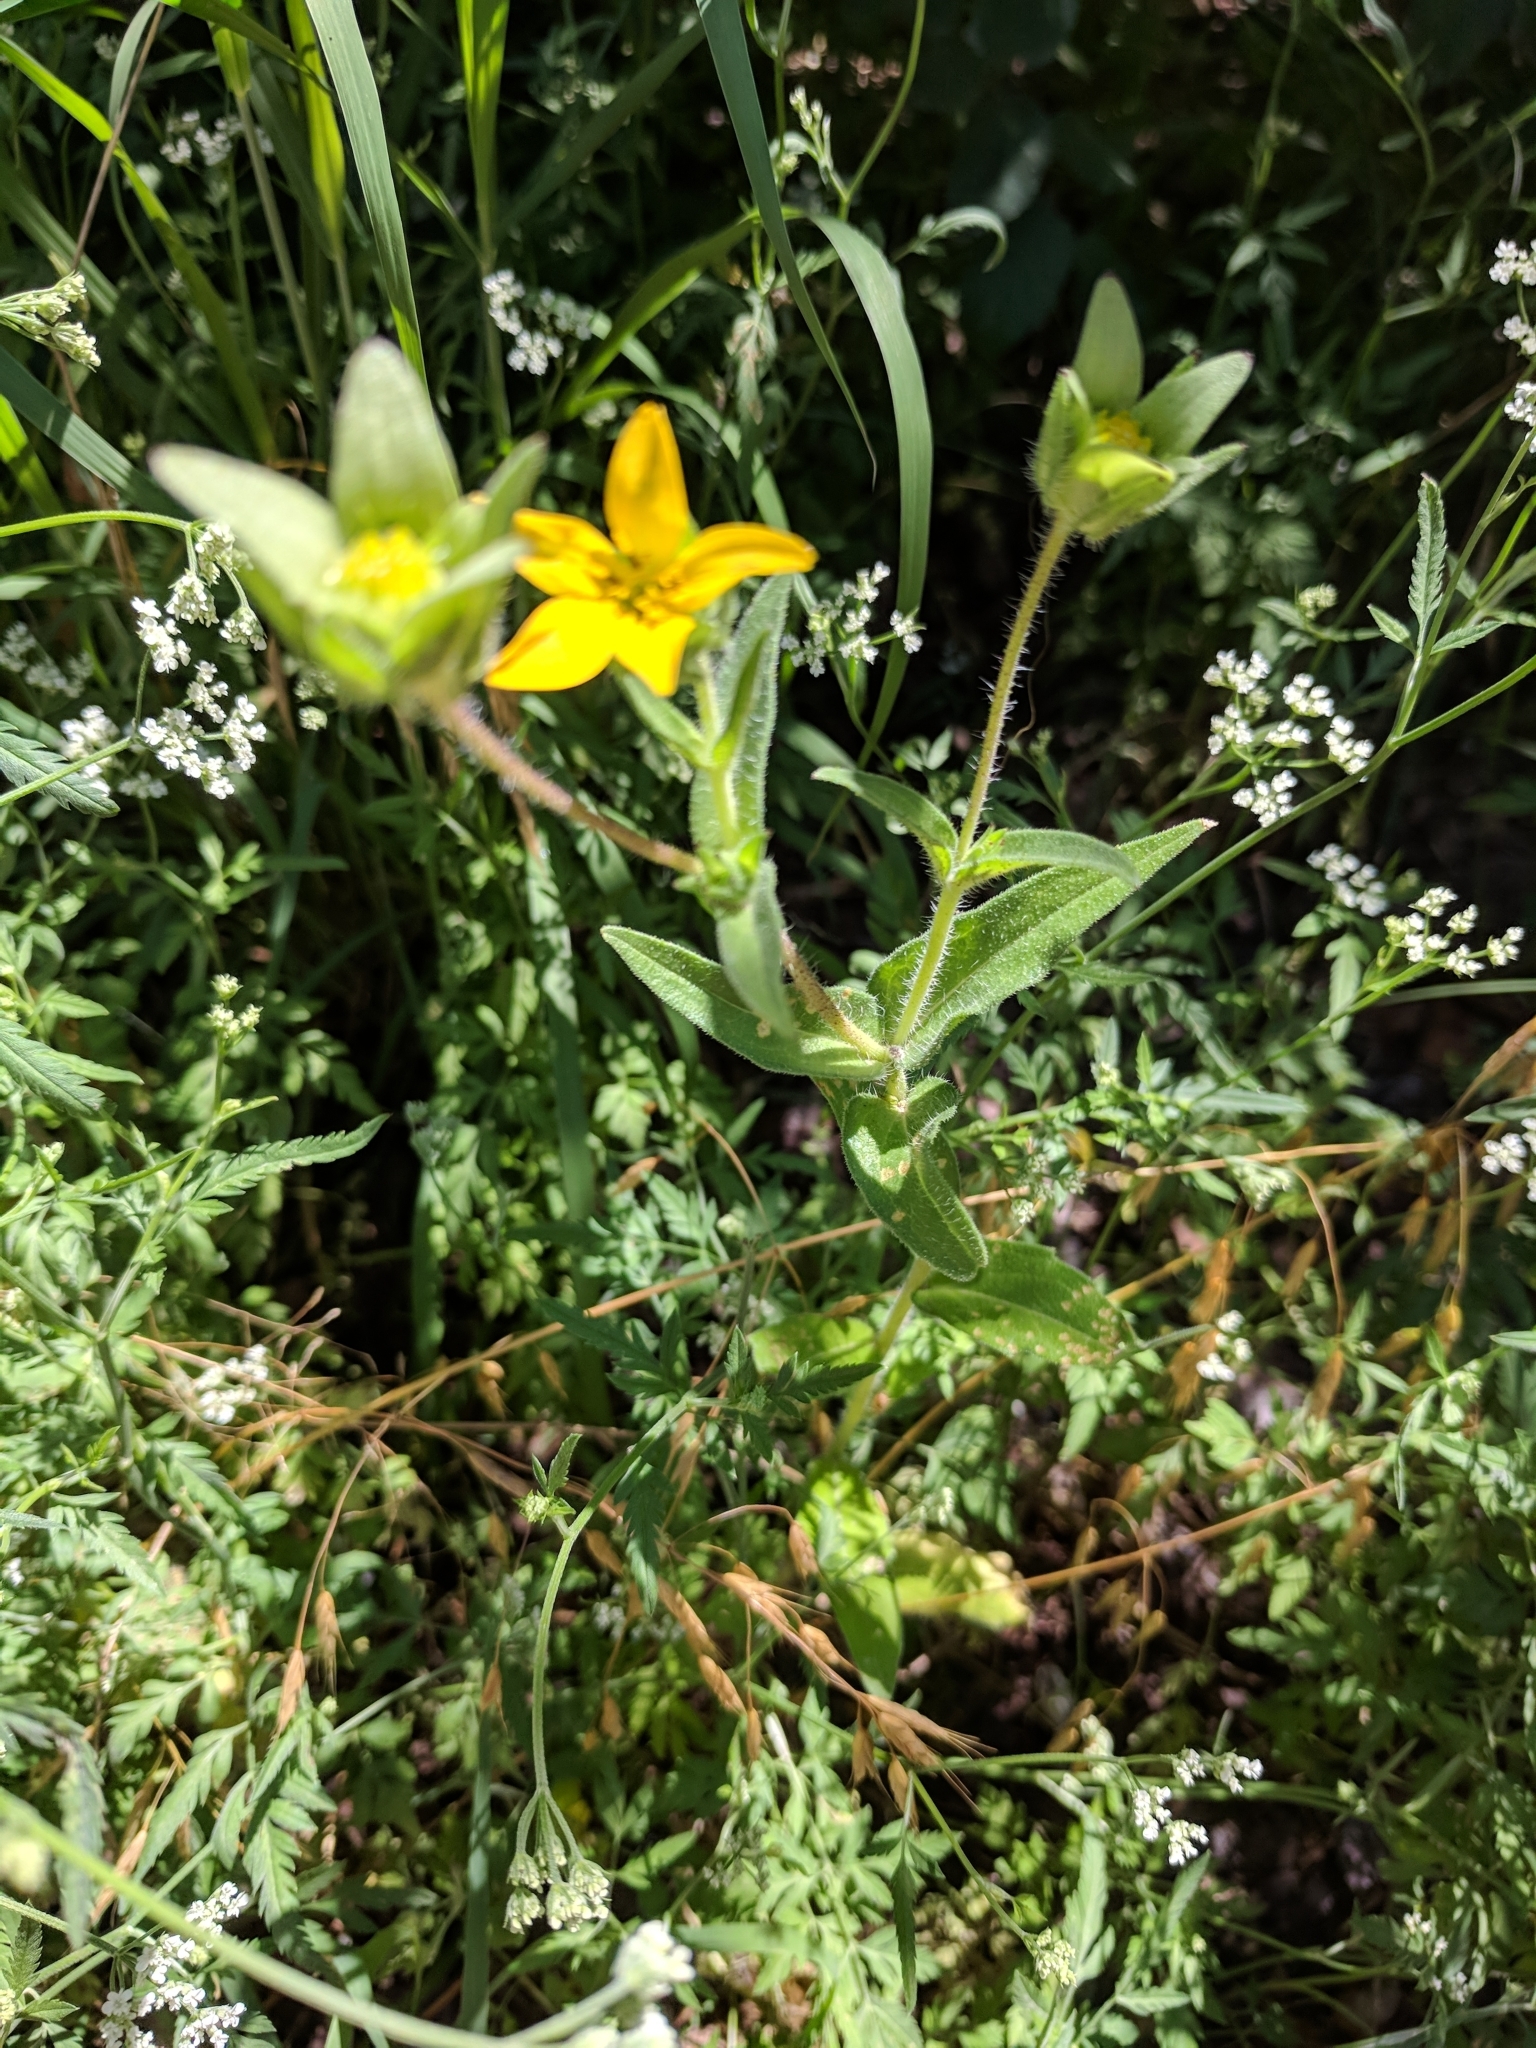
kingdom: Plantae
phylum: Tracheophyta
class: Magnoliopsida
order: Asterales
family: Asteraceae
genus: Lindheimera
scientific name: Lindheimera texana
